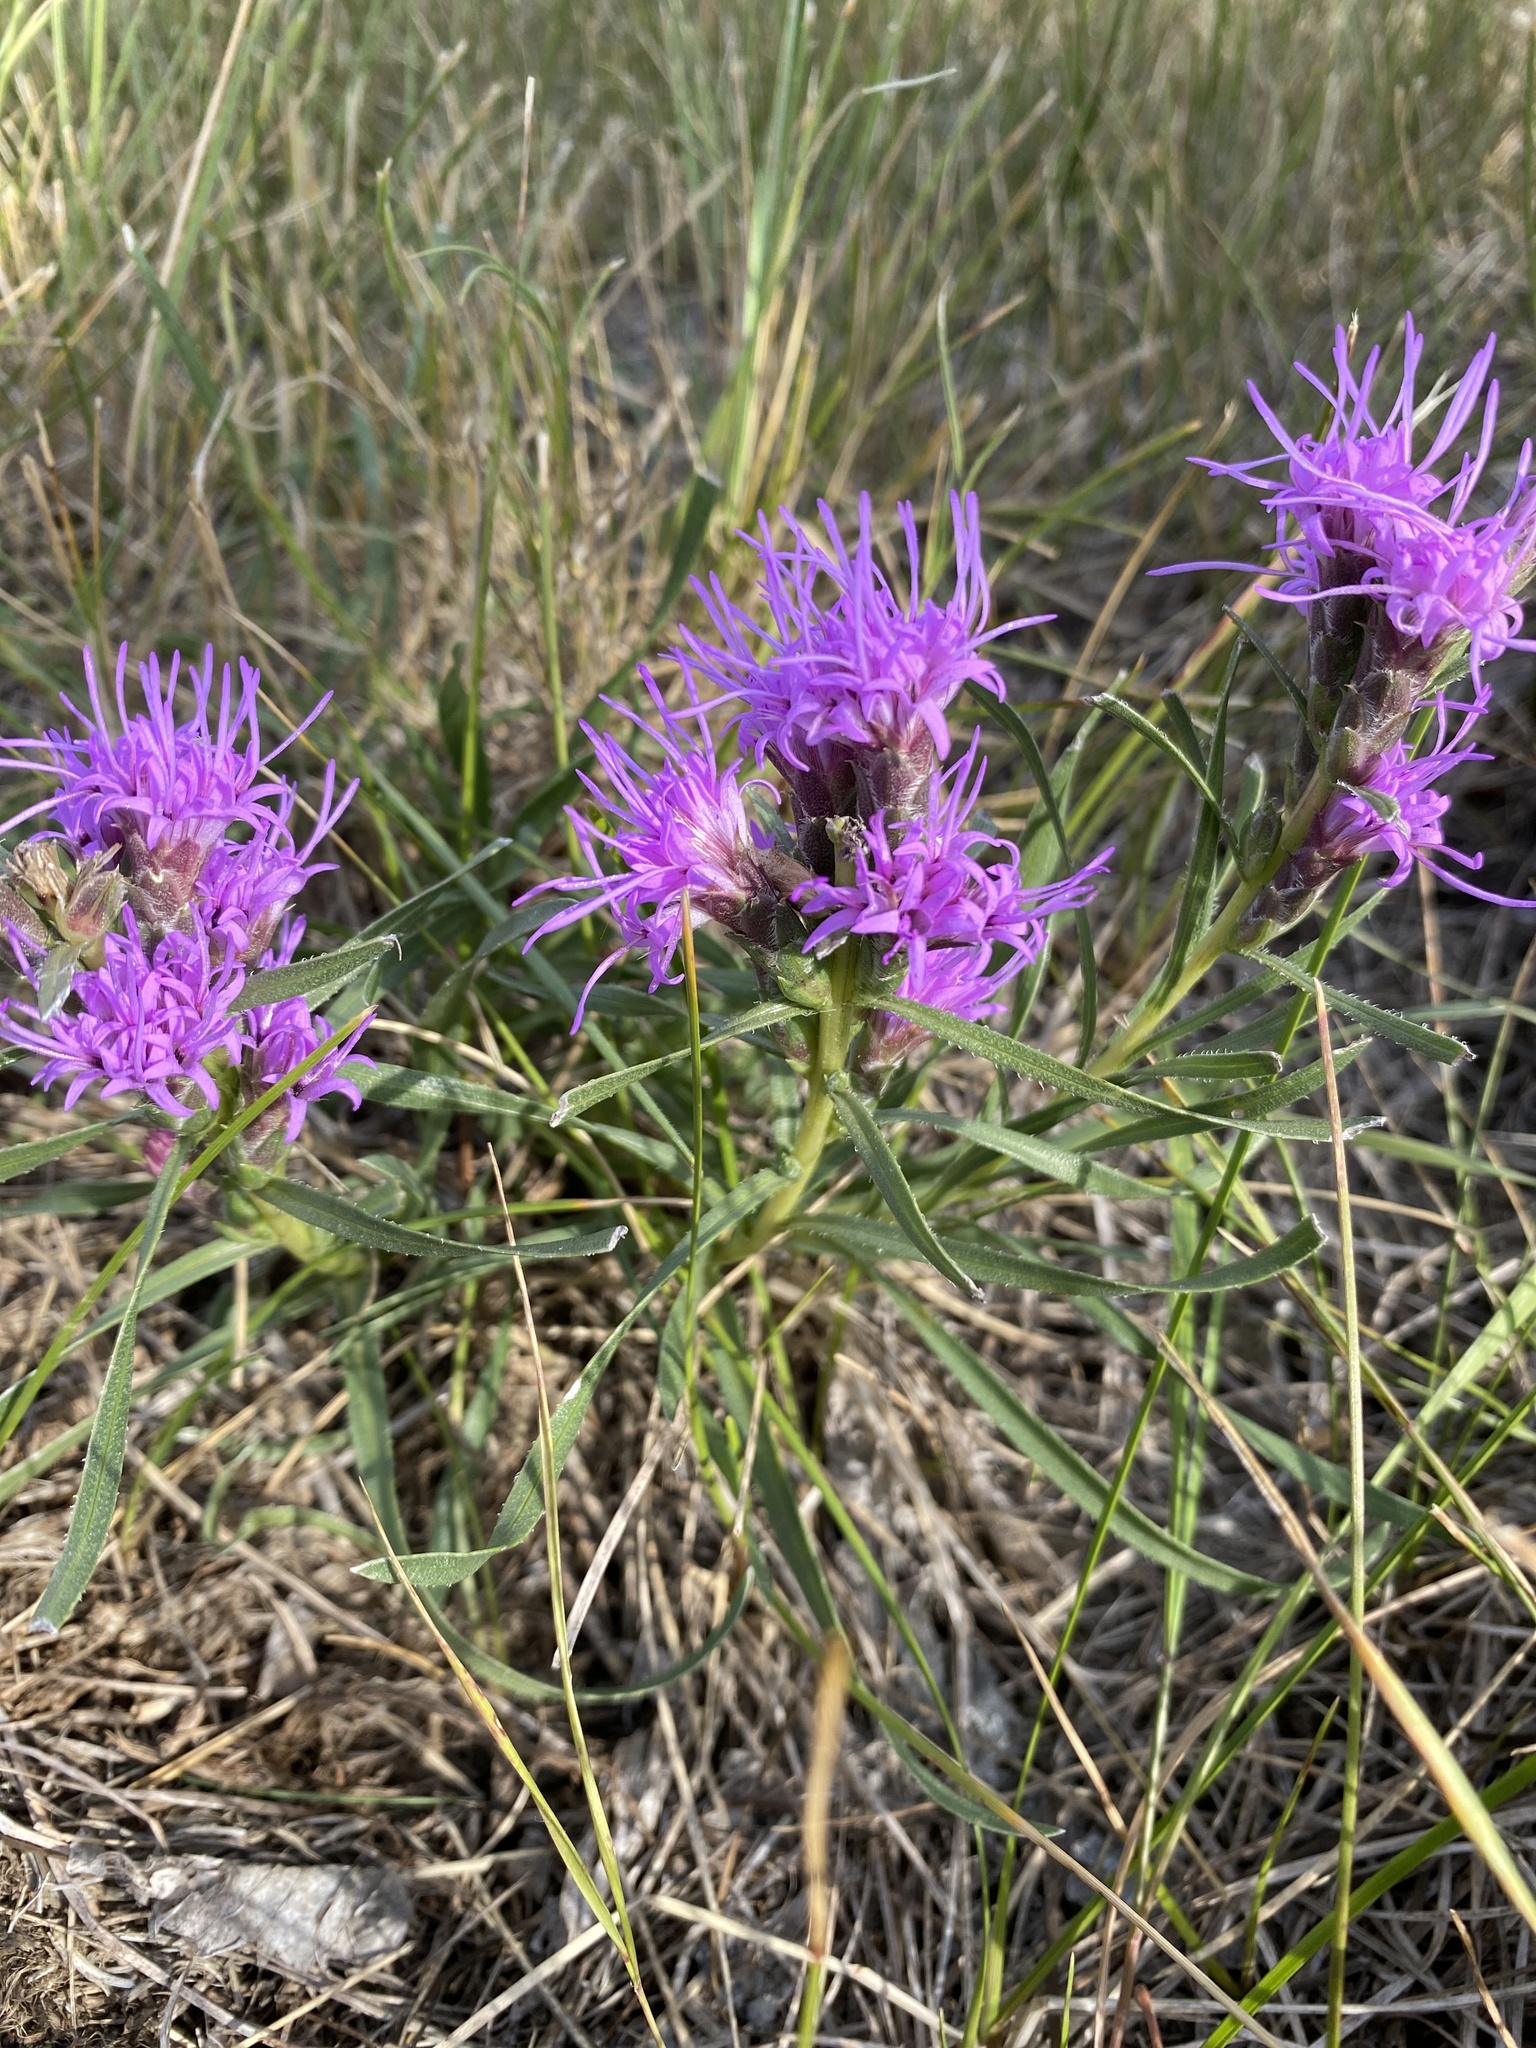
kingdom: Plantae
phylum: Tracheophyta
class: Magnoliopsida
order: Asterales
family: Asteraceae
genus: Liatris
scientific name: Liatris punctata
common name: Dotted gayfeather
